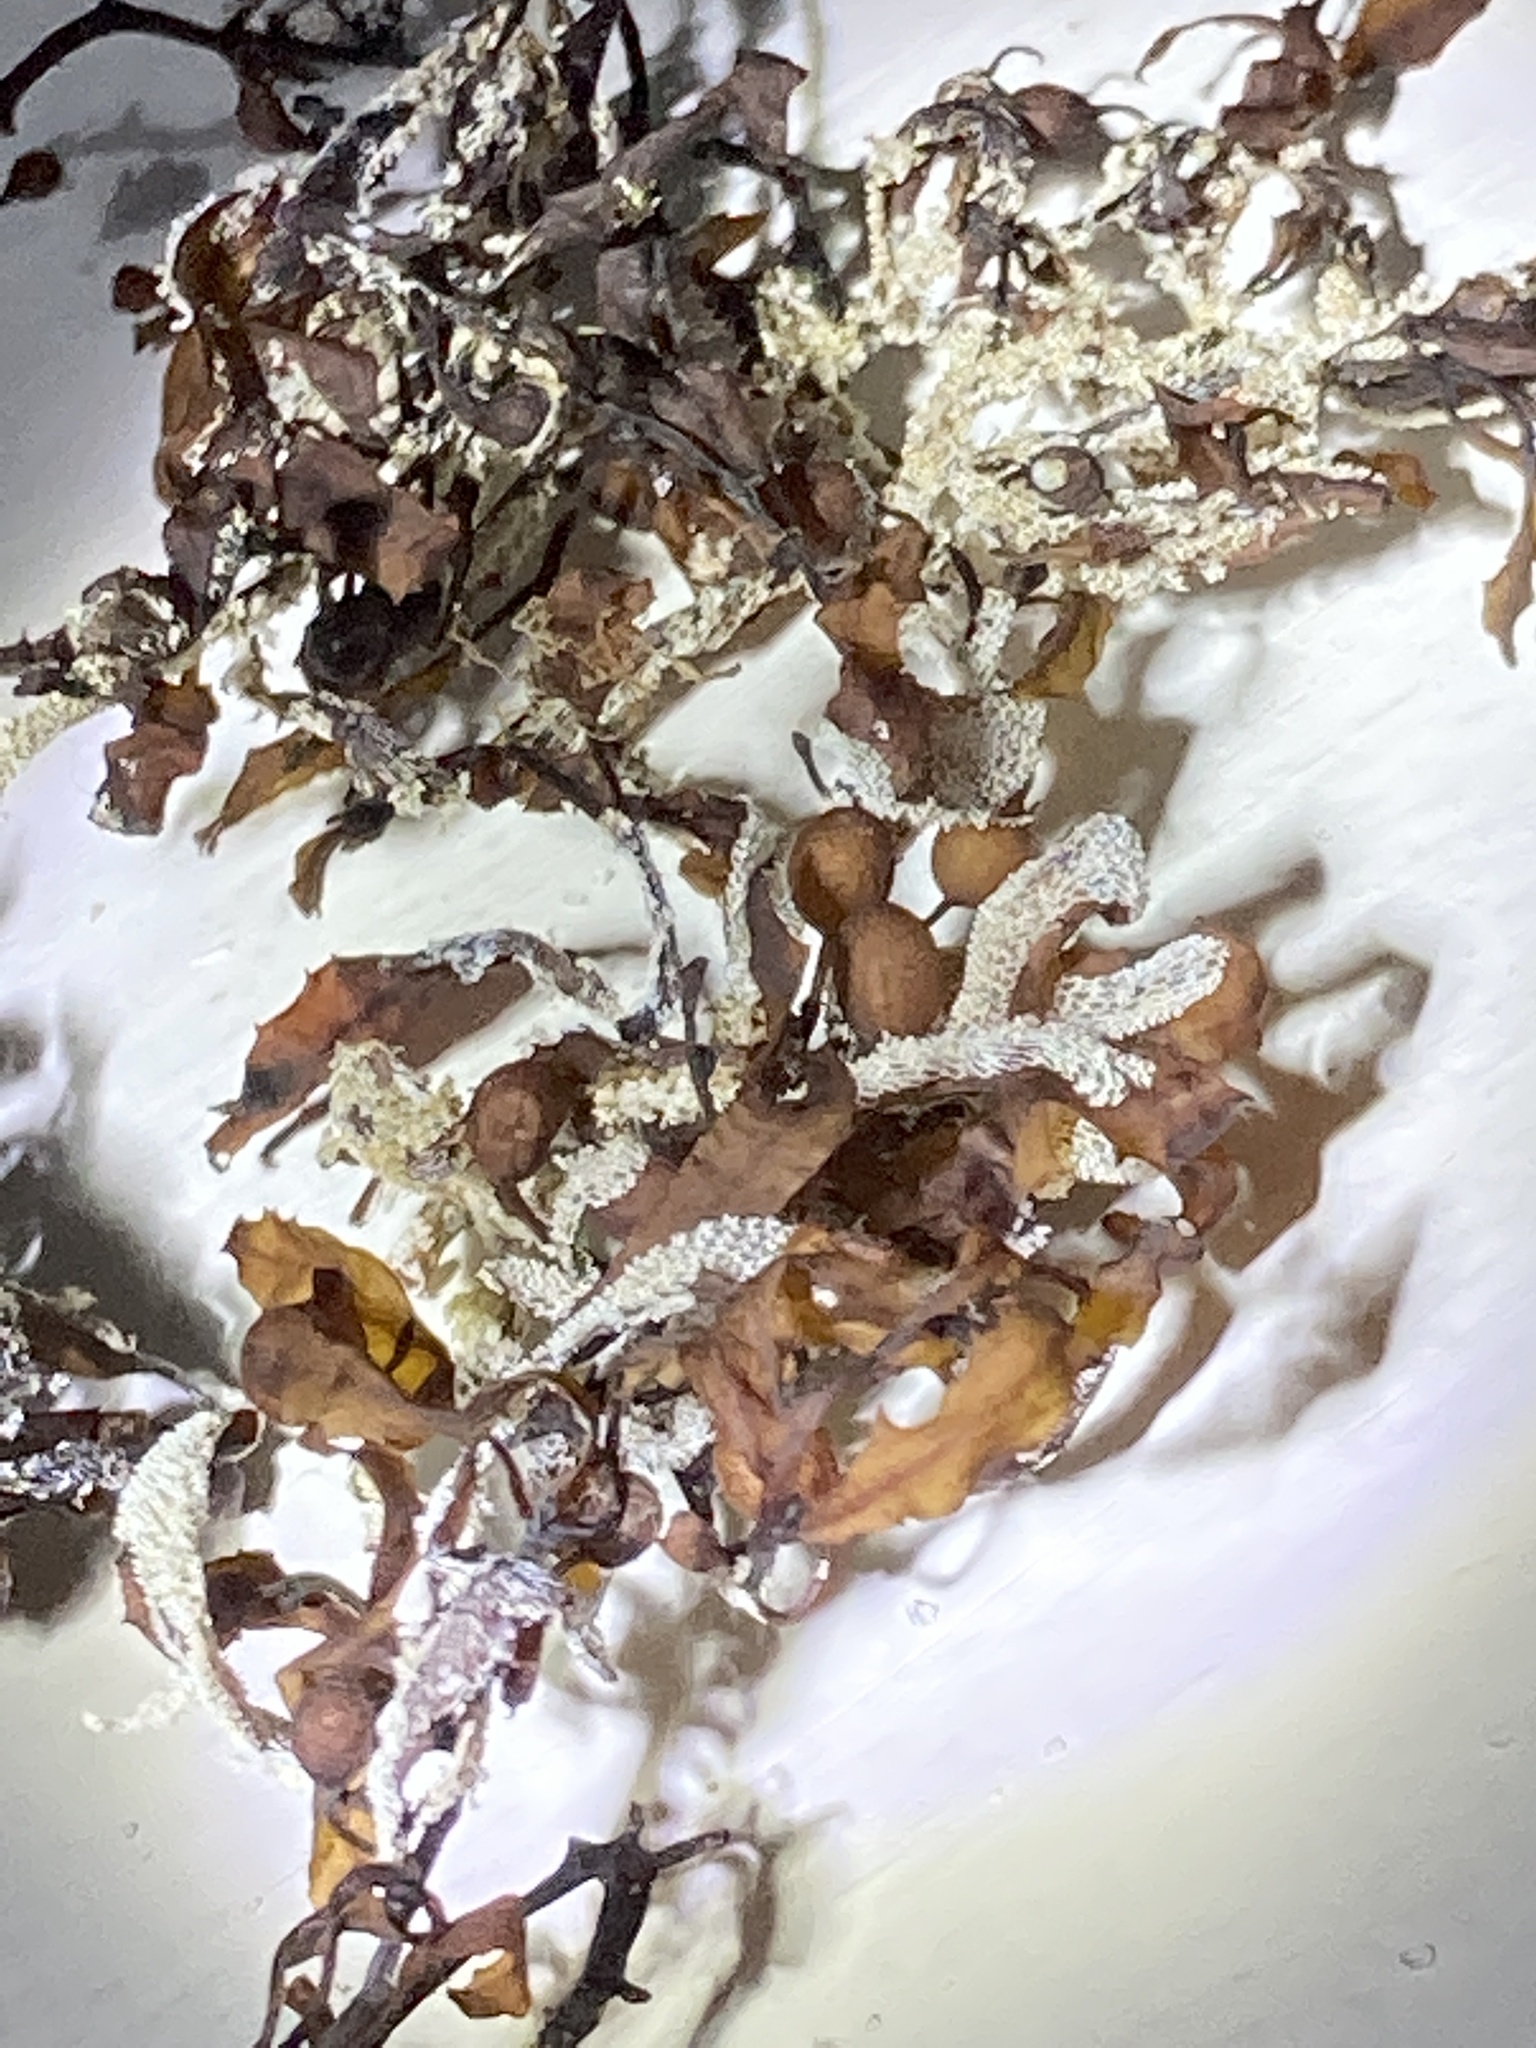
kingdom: Chromista
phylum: Ochrophyta
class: Phaeophyceae
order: Fucales
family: Sargassaceae
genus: Sargassum
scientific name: Sargassum fluitans
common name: Sargassum seaweed
